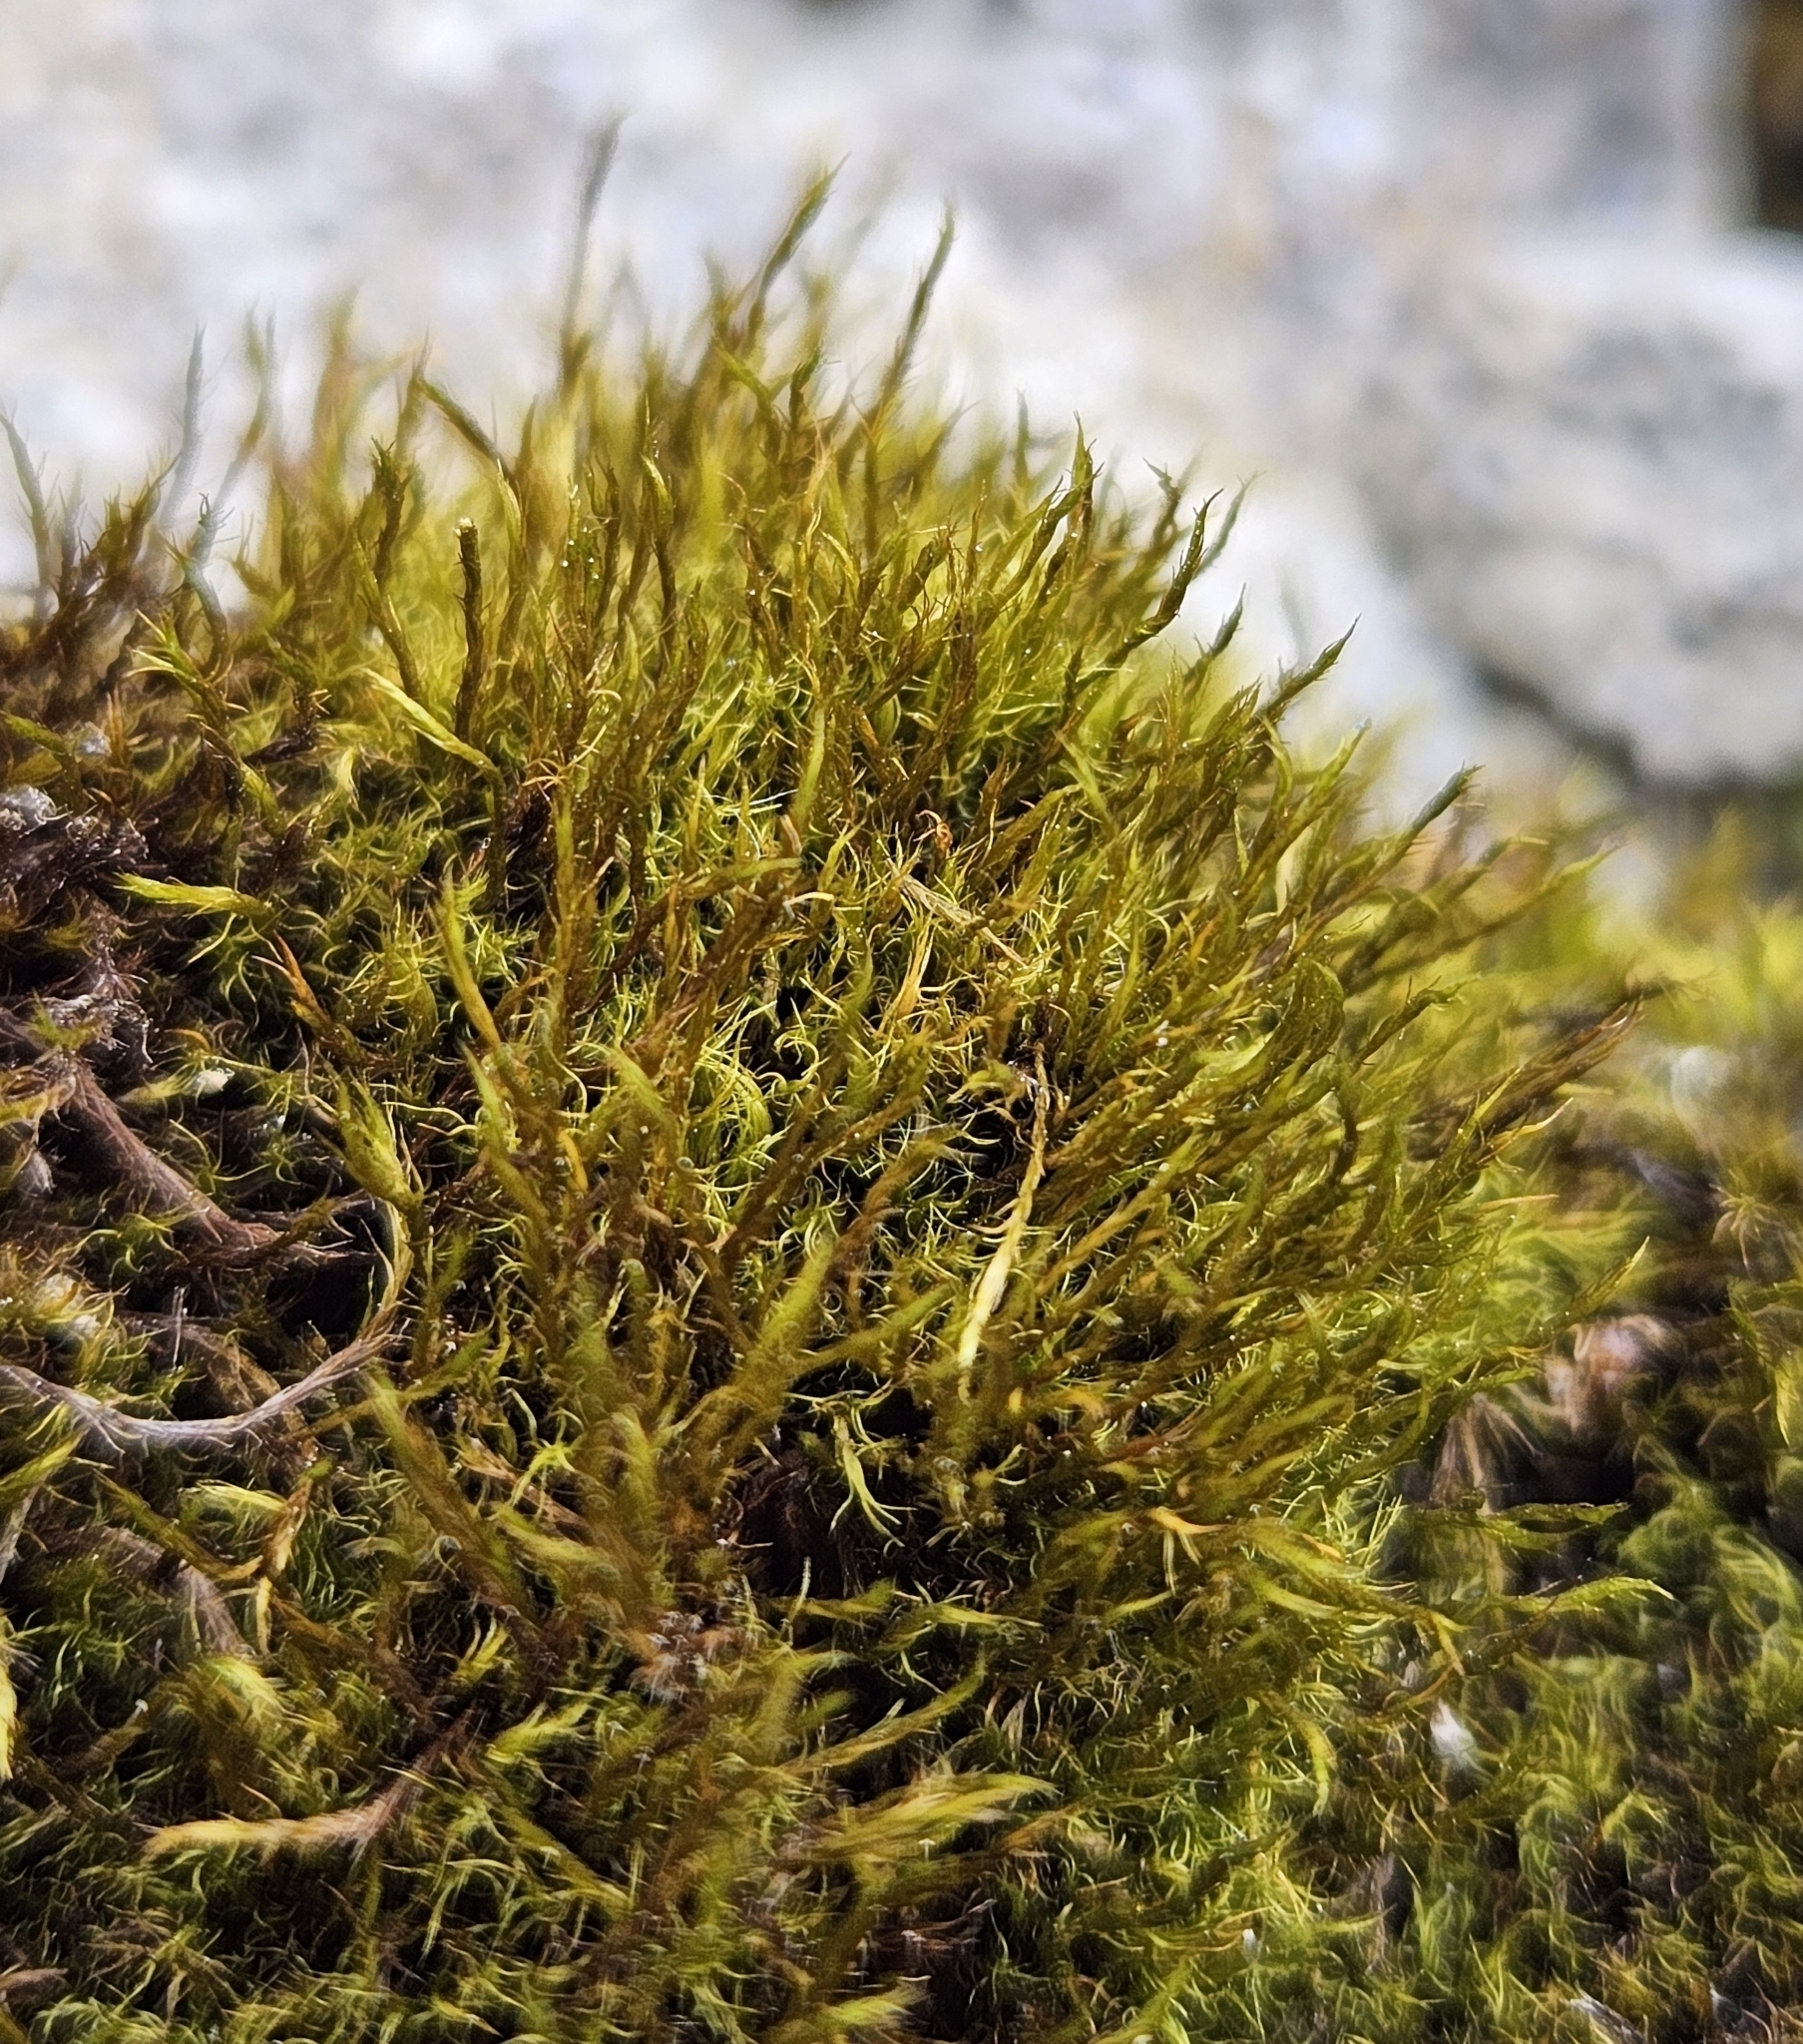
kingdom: Plantae
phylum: Bryophyta
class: Bryopsida
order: Scouleriales
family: Flexitrichaceae
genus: Flexitrichum
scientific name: Flexitrichum flexicaule
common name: Bendy ditrichum
